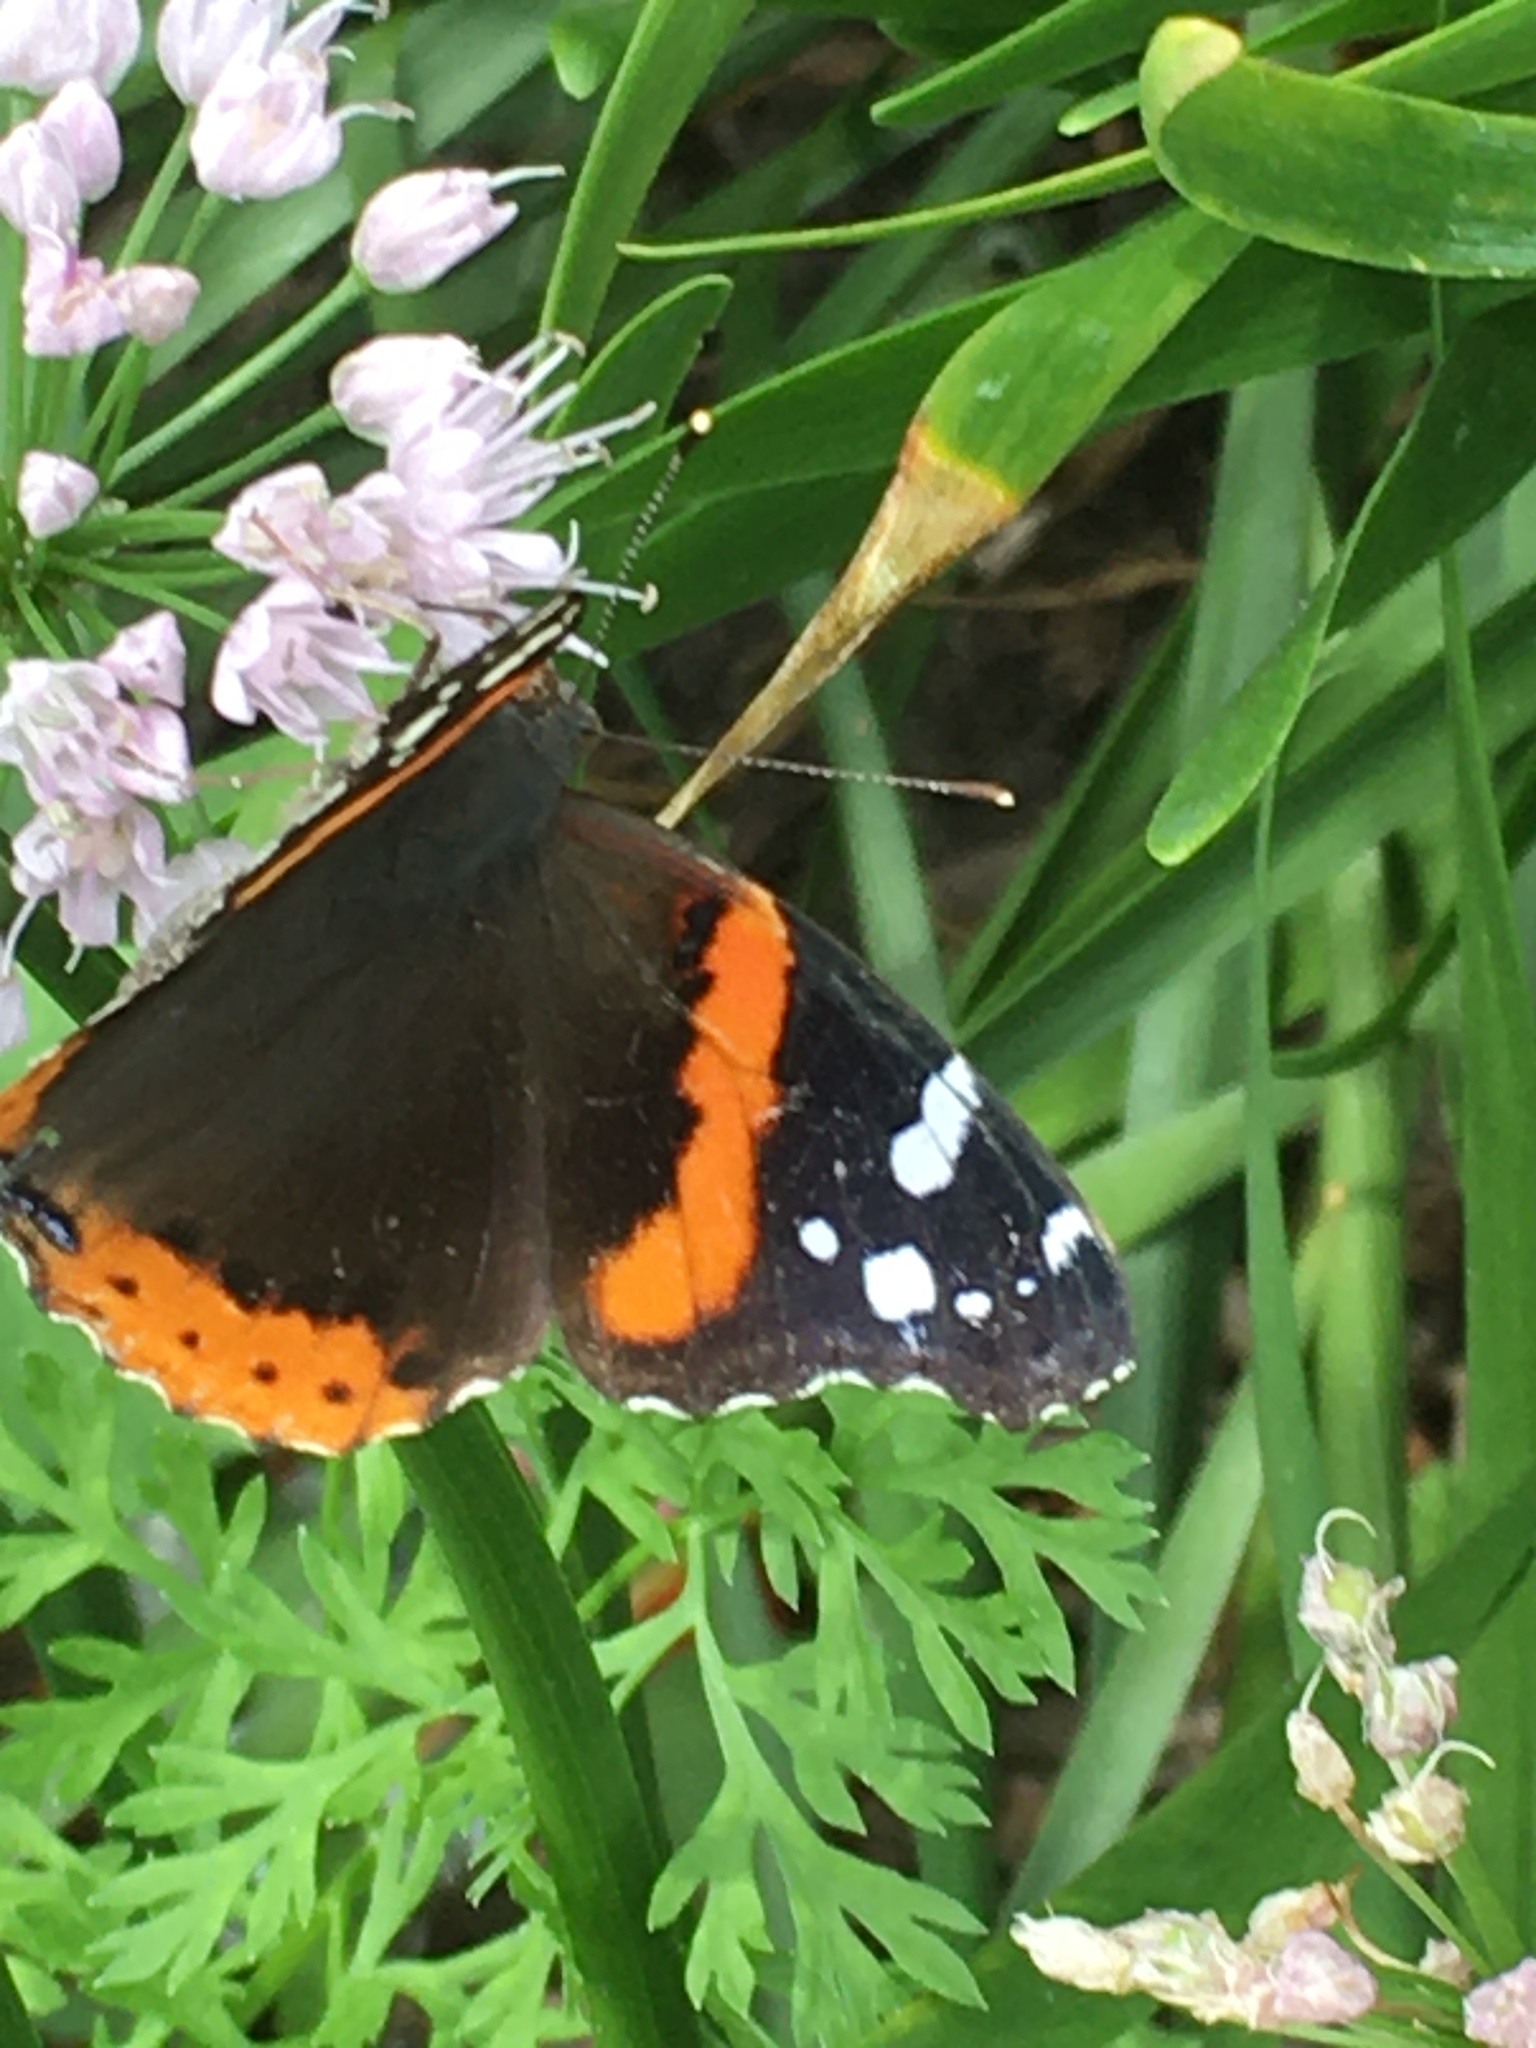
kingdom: Animalia
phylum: Arthropoda
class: Insecta
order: Lepidoptera
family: Nymphalidae
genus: Vanessa
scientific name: Vanessa atalanta
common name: Red admiral
